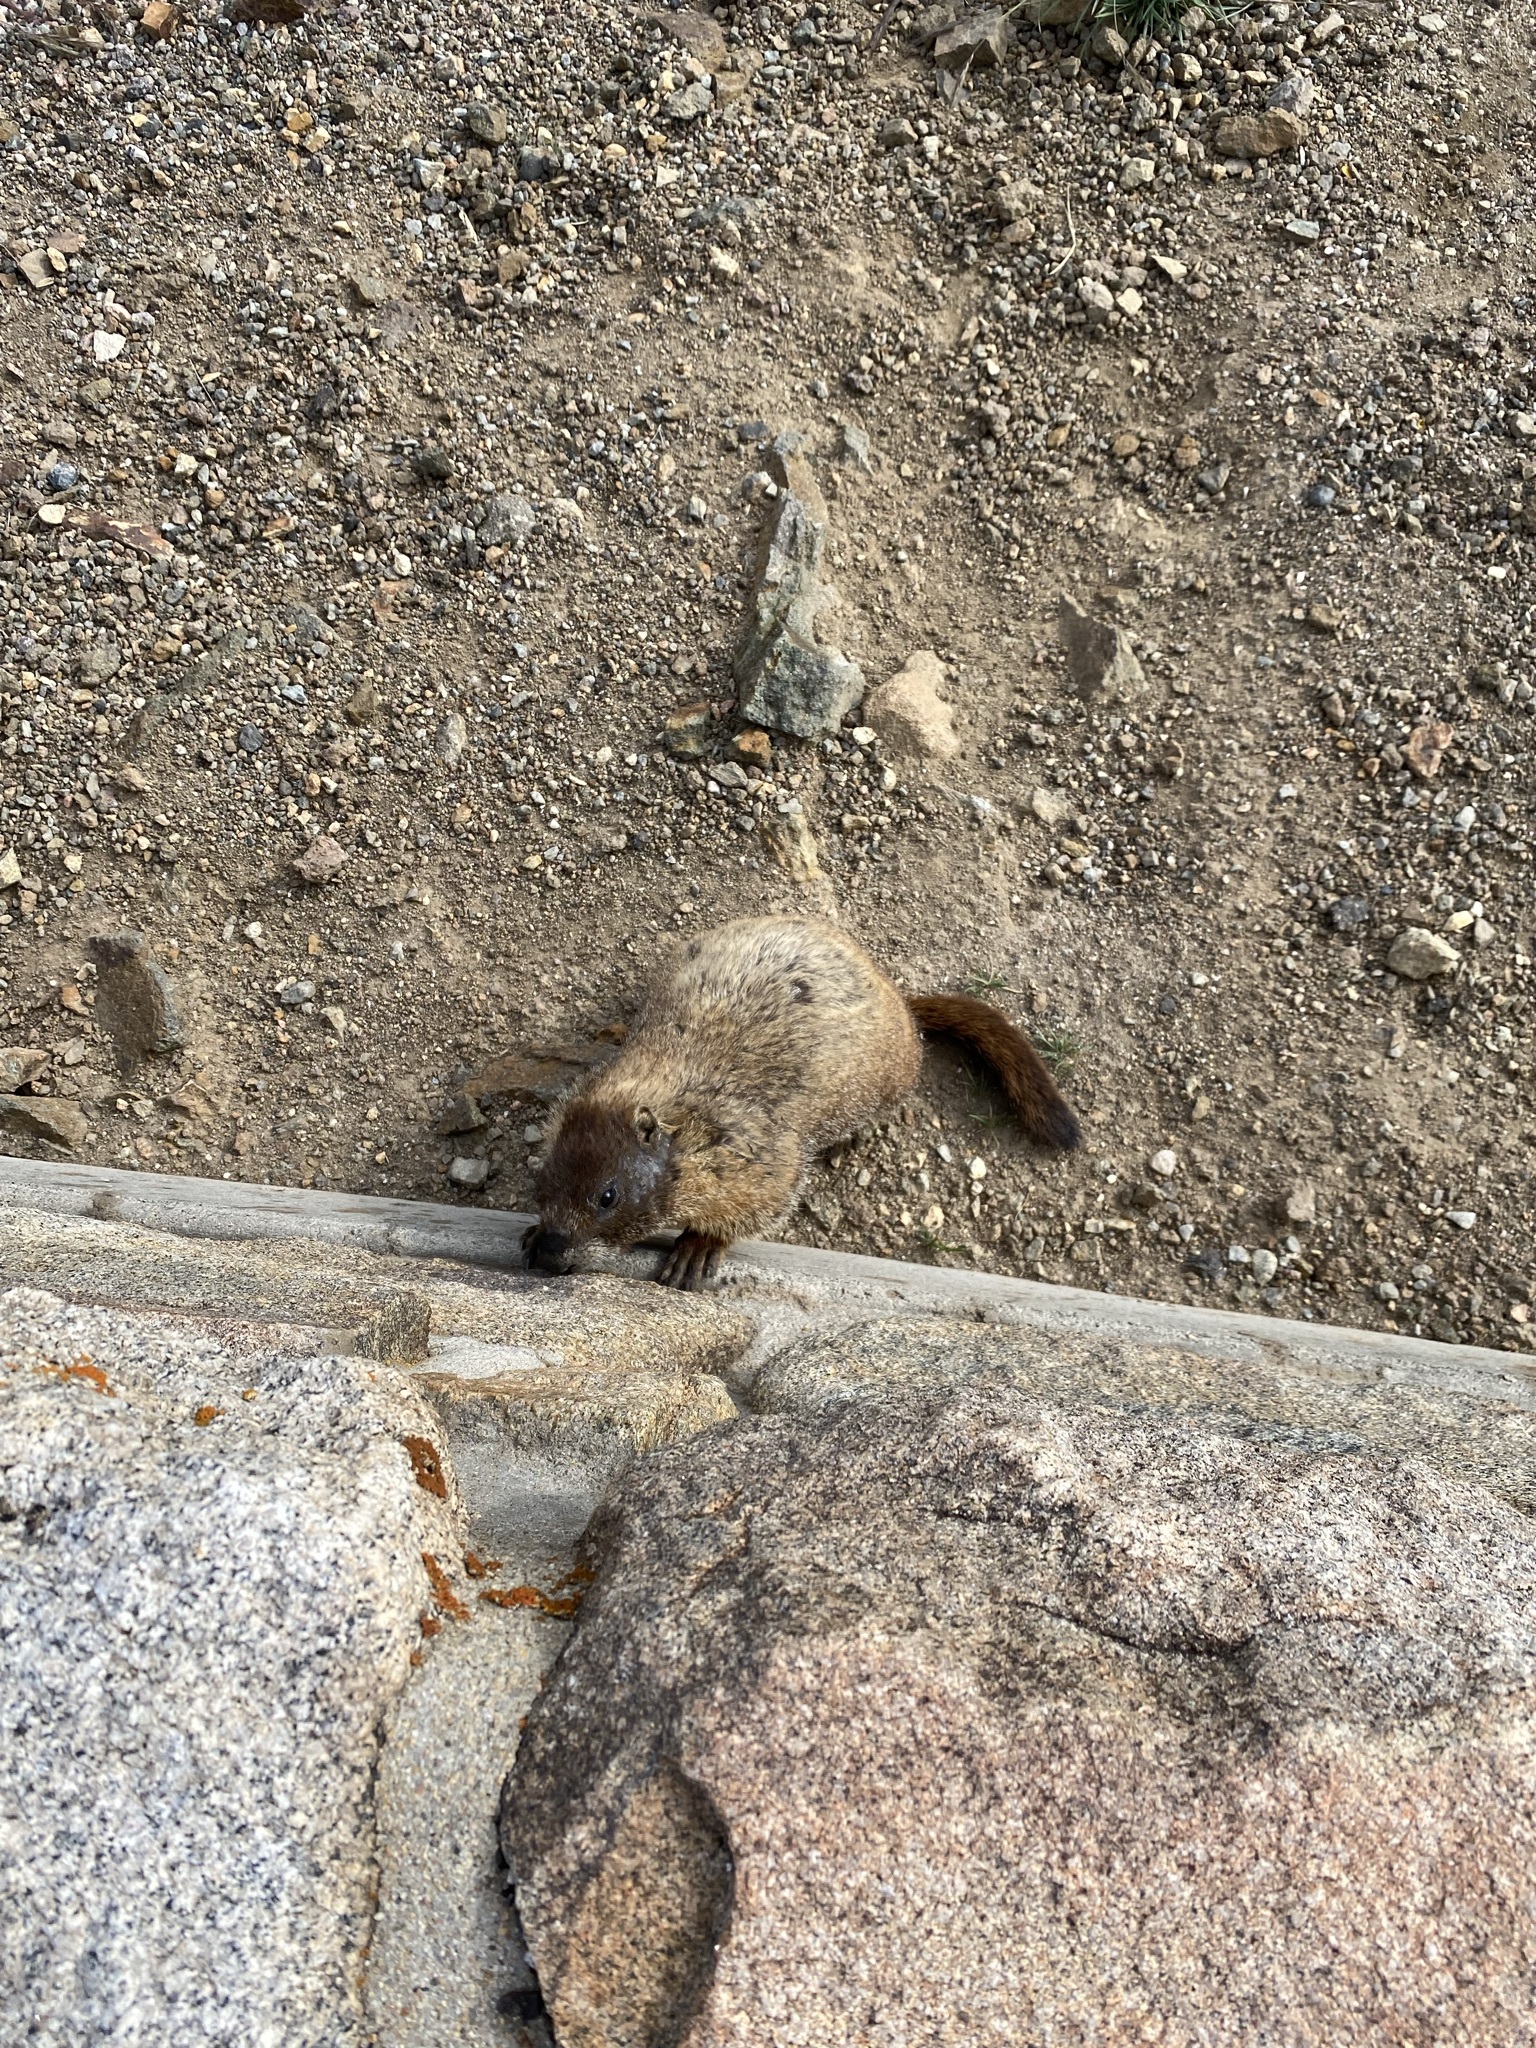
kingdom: Animalia
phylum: Chordata
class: Mammalia
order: Rodentia
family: Sciuridae
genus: Marmota
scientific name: Marmota flaviventris
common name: Yellow-bellied marmot
